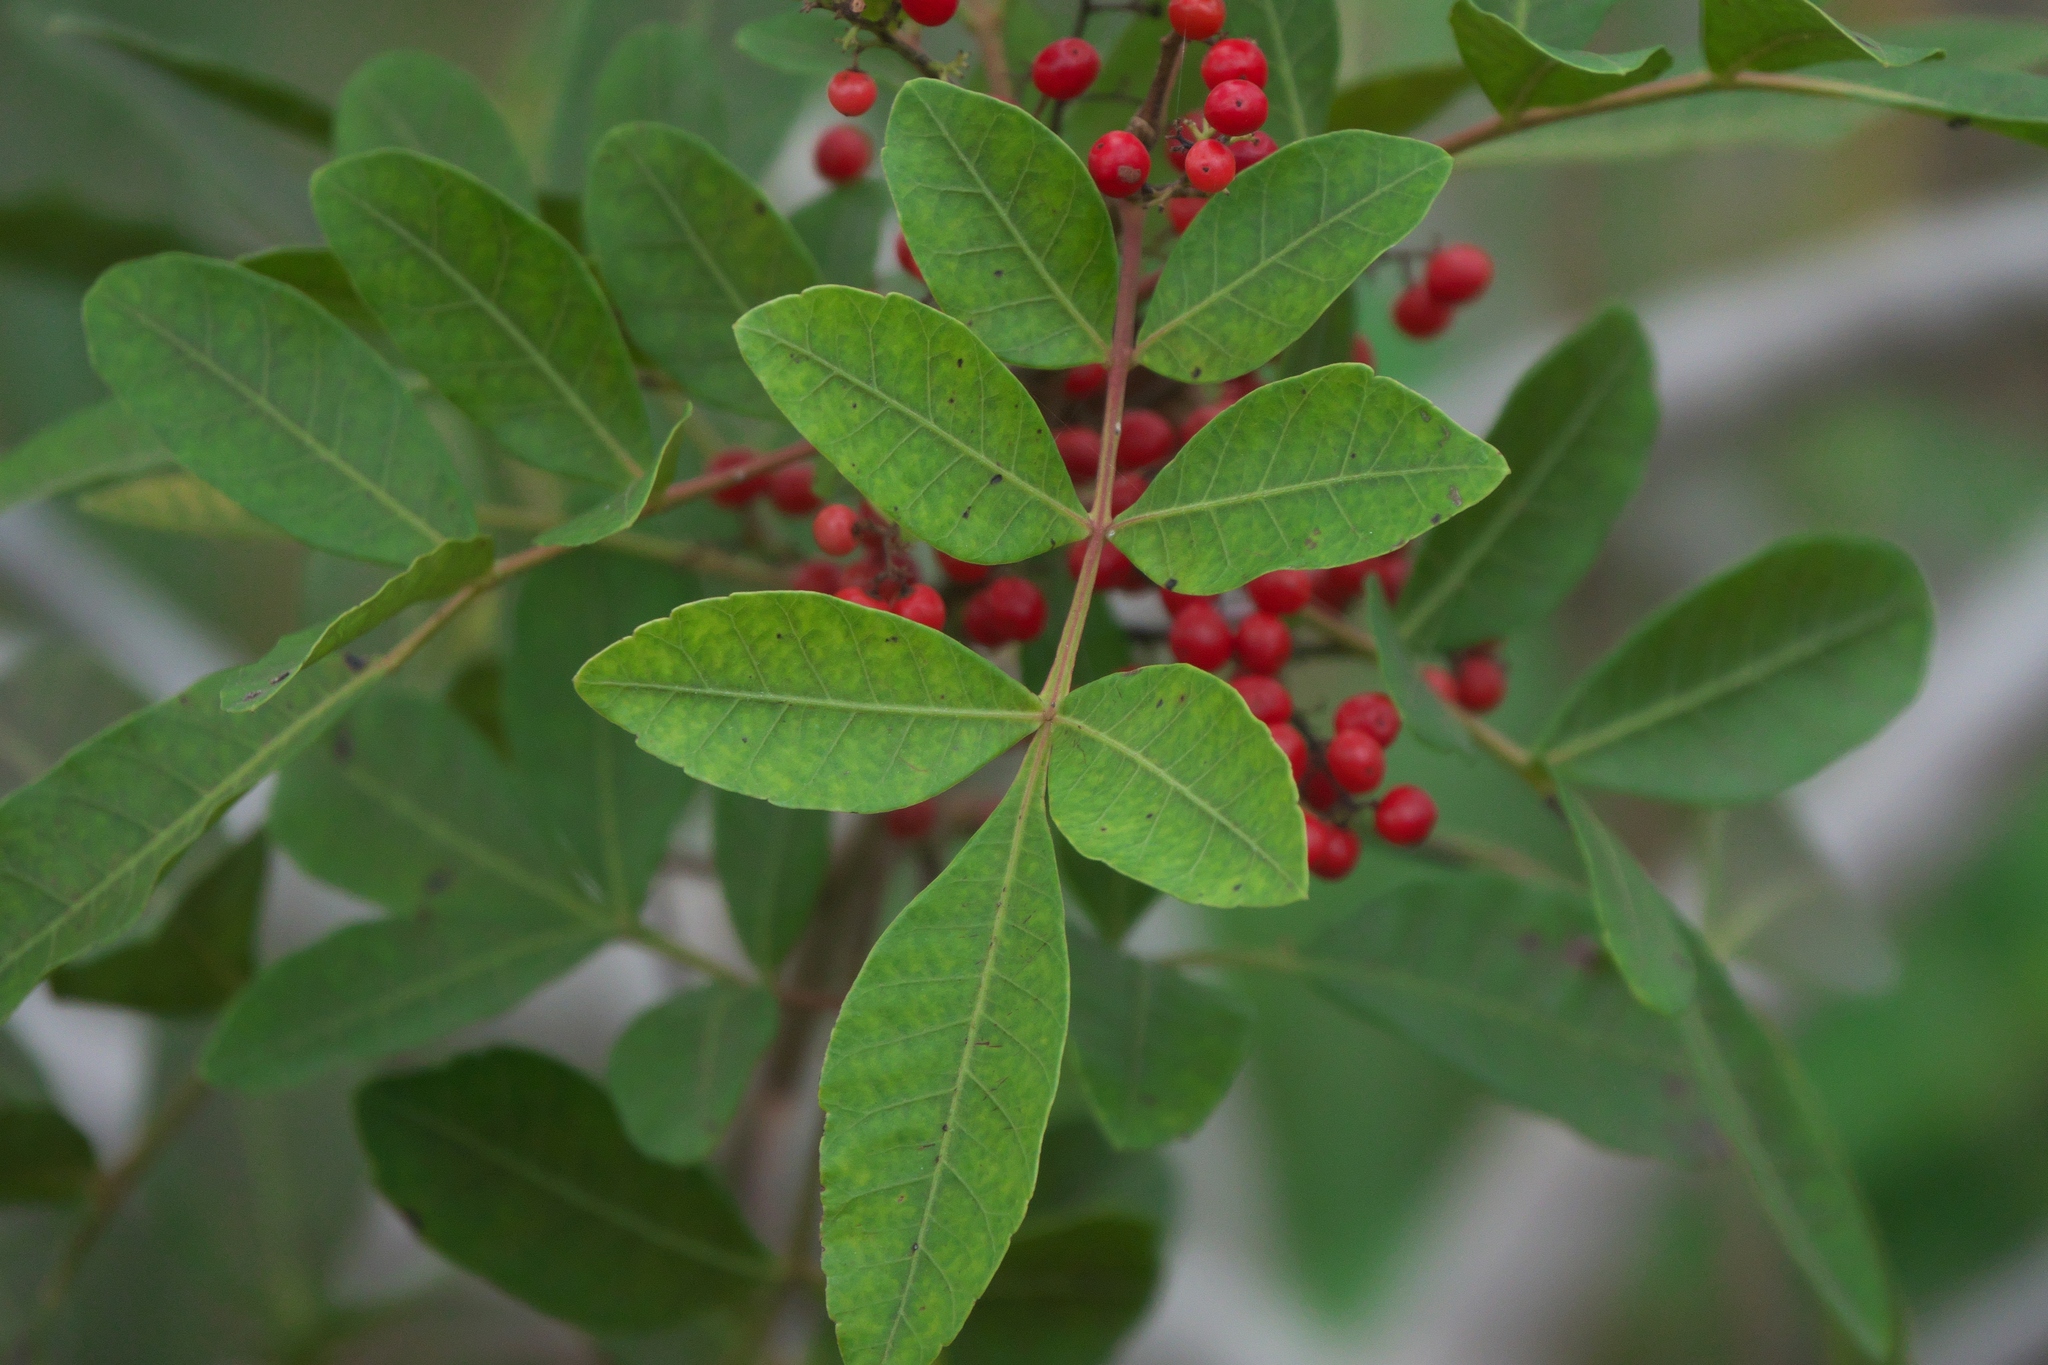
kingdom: Plantae
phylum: Tracheophyta
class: Magnoliopsida
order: Sapindales
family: Anacardiaceae
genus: Schinus
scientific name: Schinus terebinthifolia
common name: Brazilian peppertree
